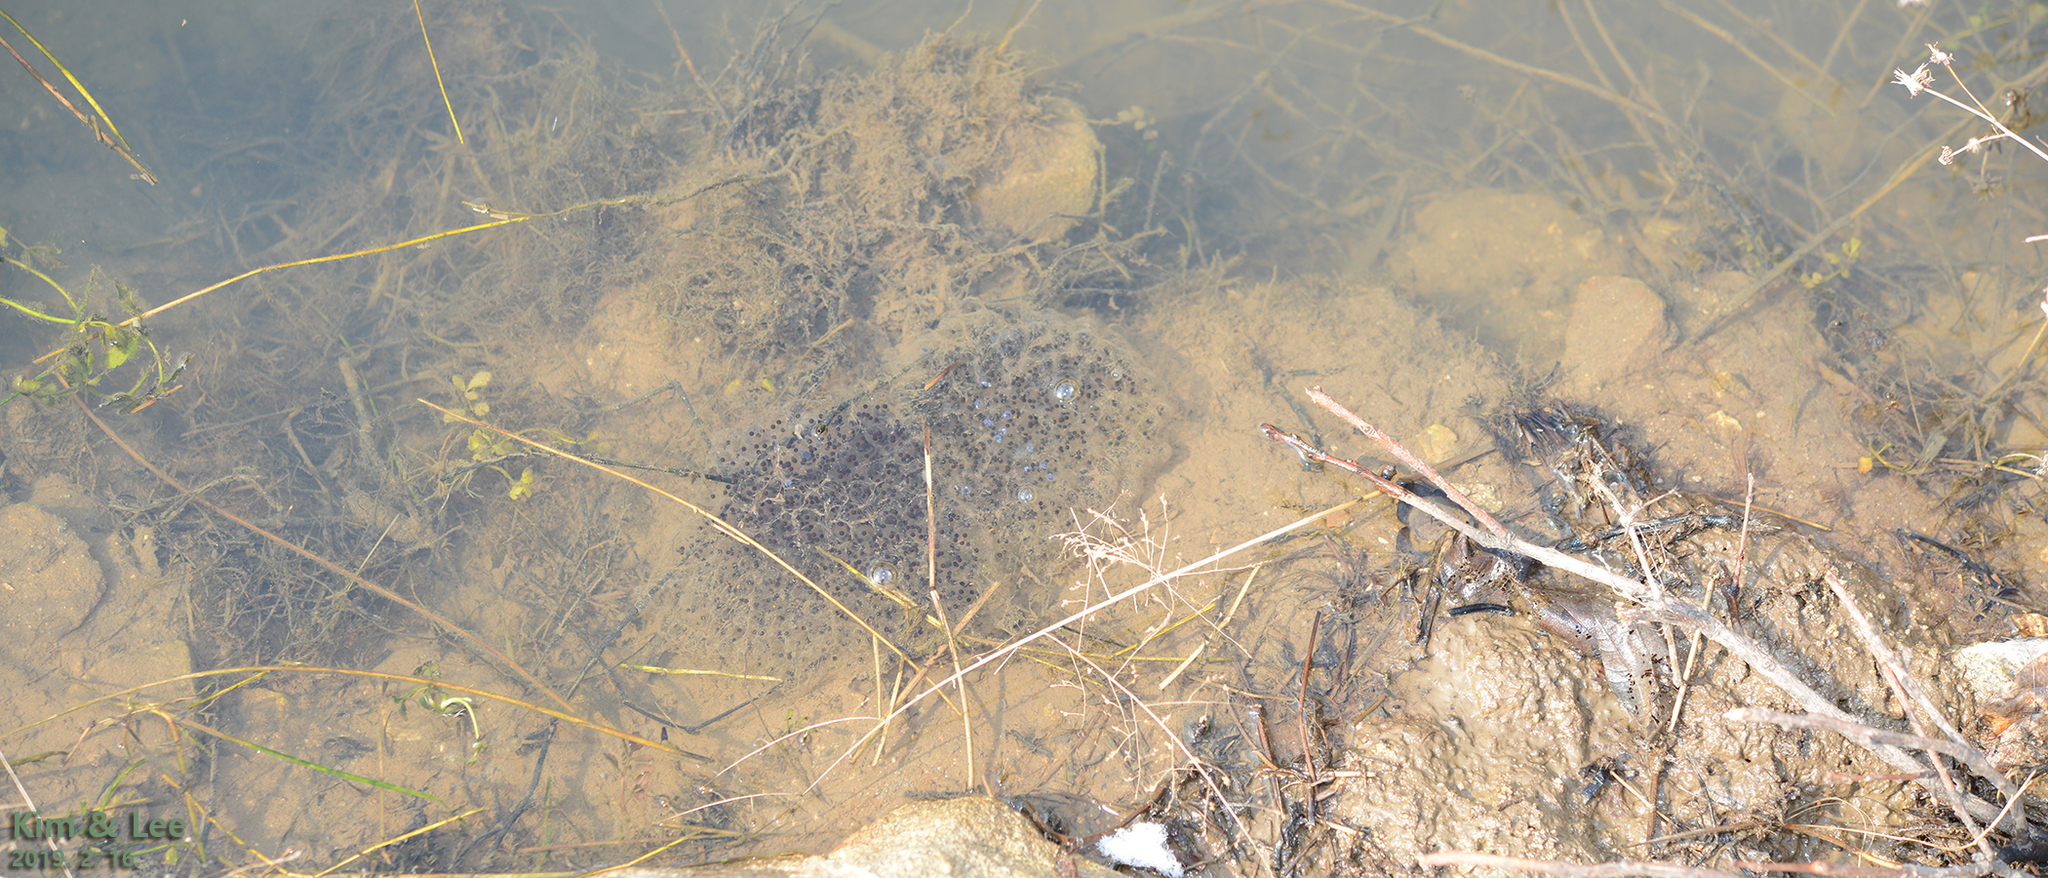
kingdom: Animalia
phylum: Chordata
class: Amphibia
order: Anura
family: Ranidae
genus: Rana
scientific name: Rana uenoi
